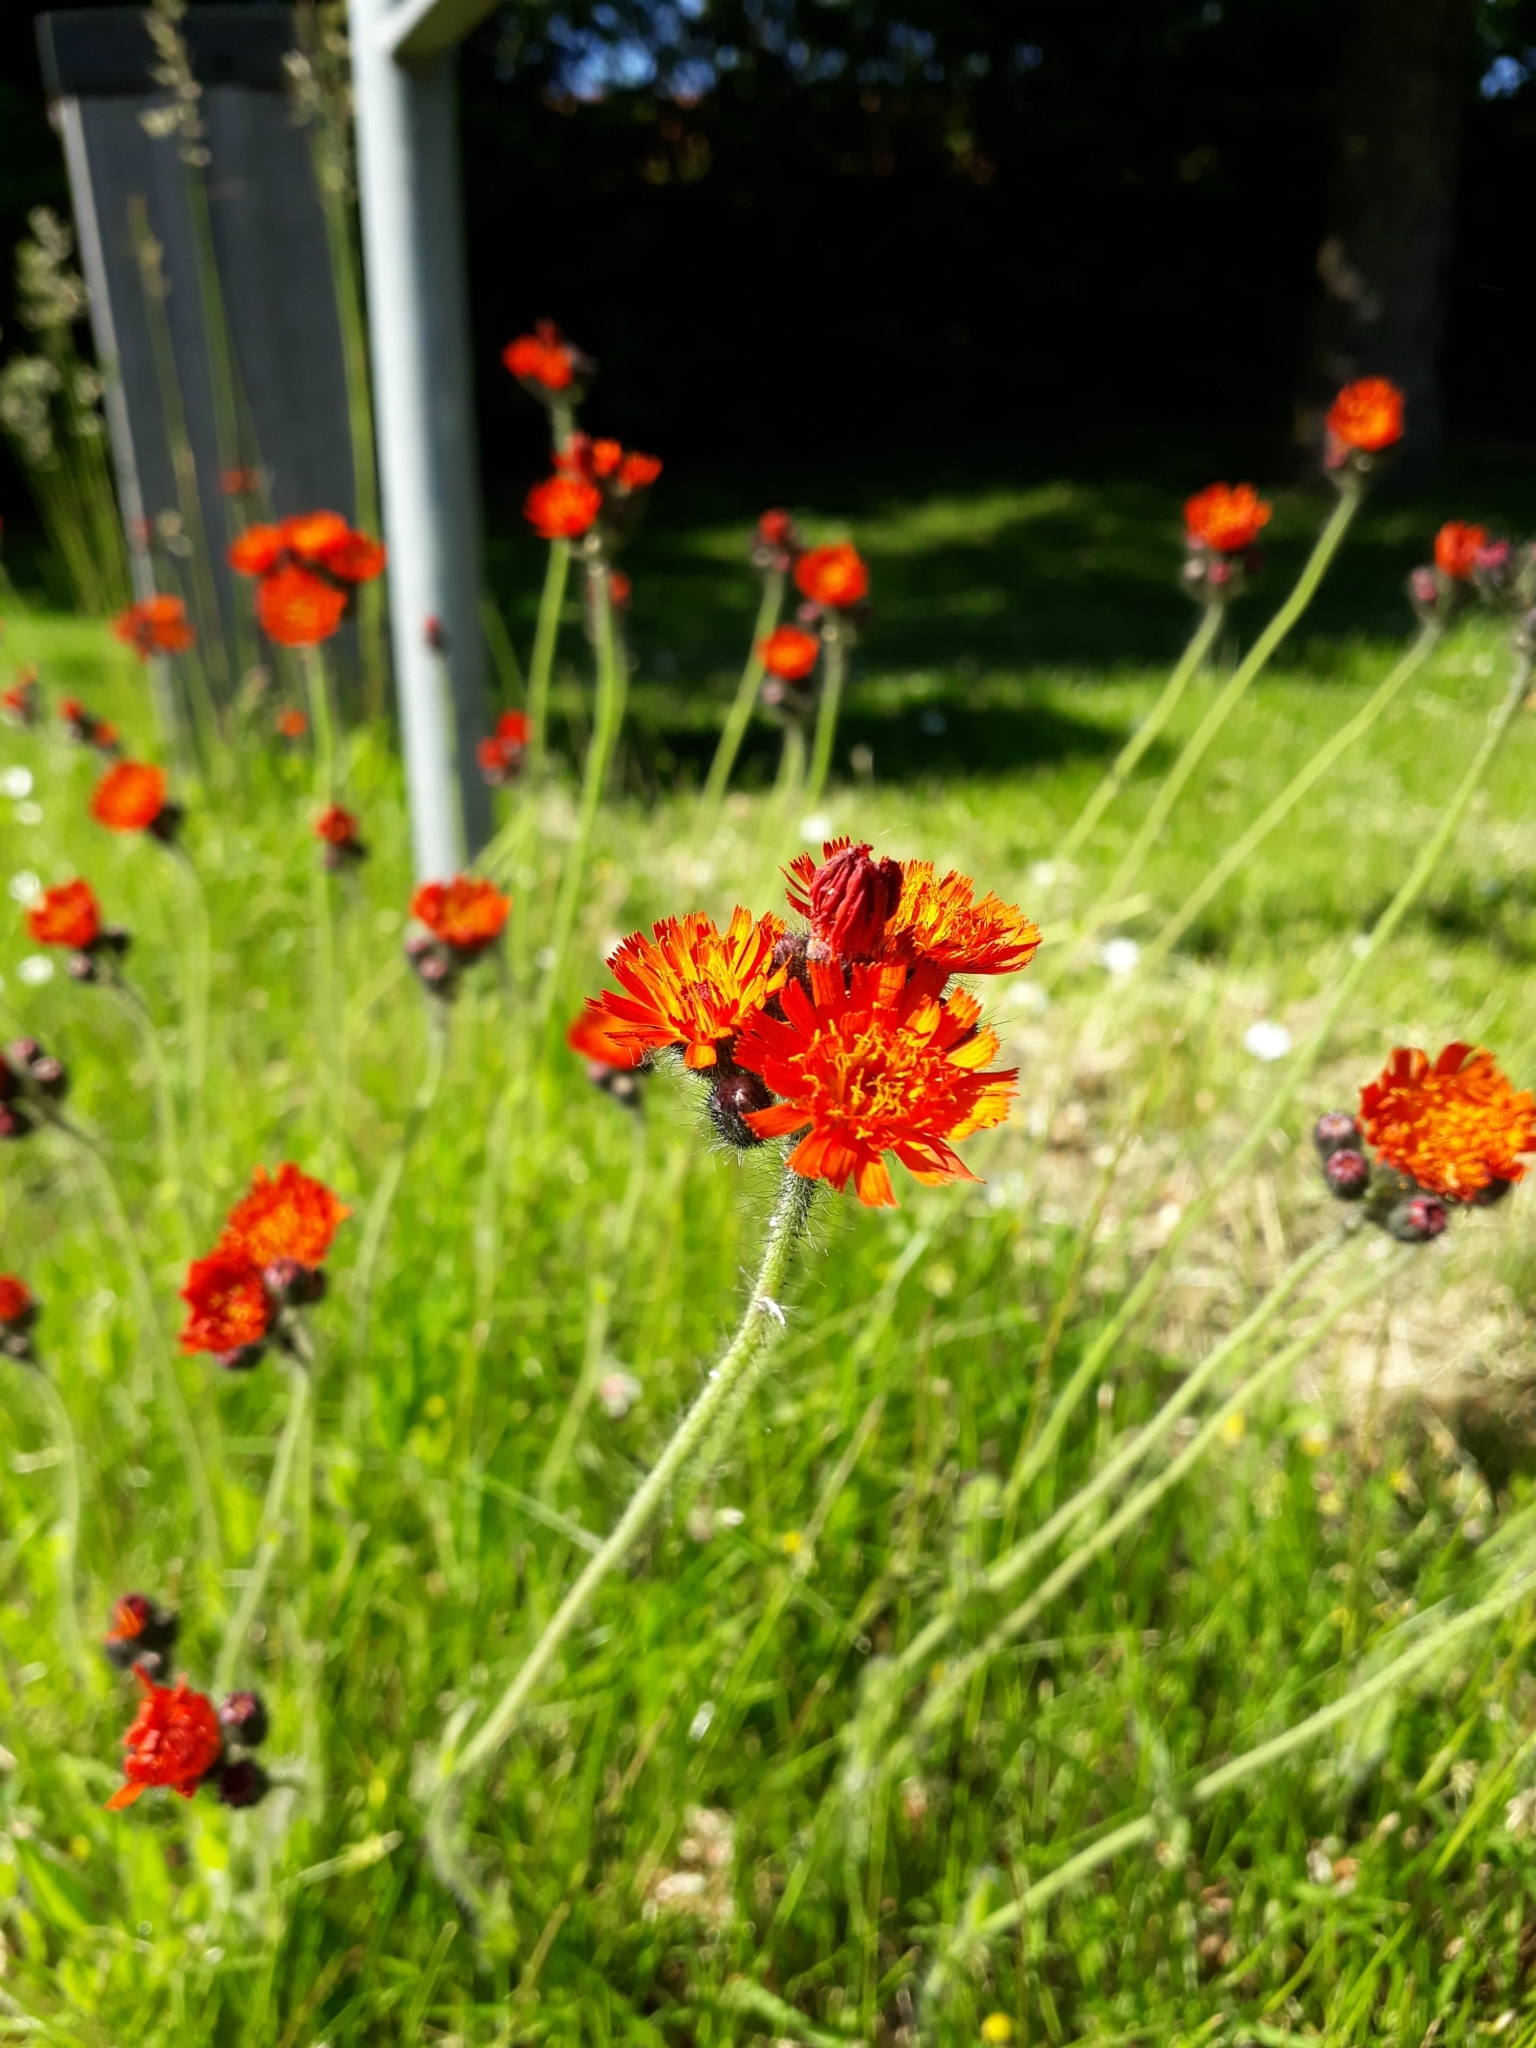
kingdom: Plantae
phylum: Tracheophyta
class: Magnoliopsida
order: Asterales
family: Asteraceae
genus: Pilosella
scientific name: Pilosella aurantiaca
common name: Fox-and-cubs
